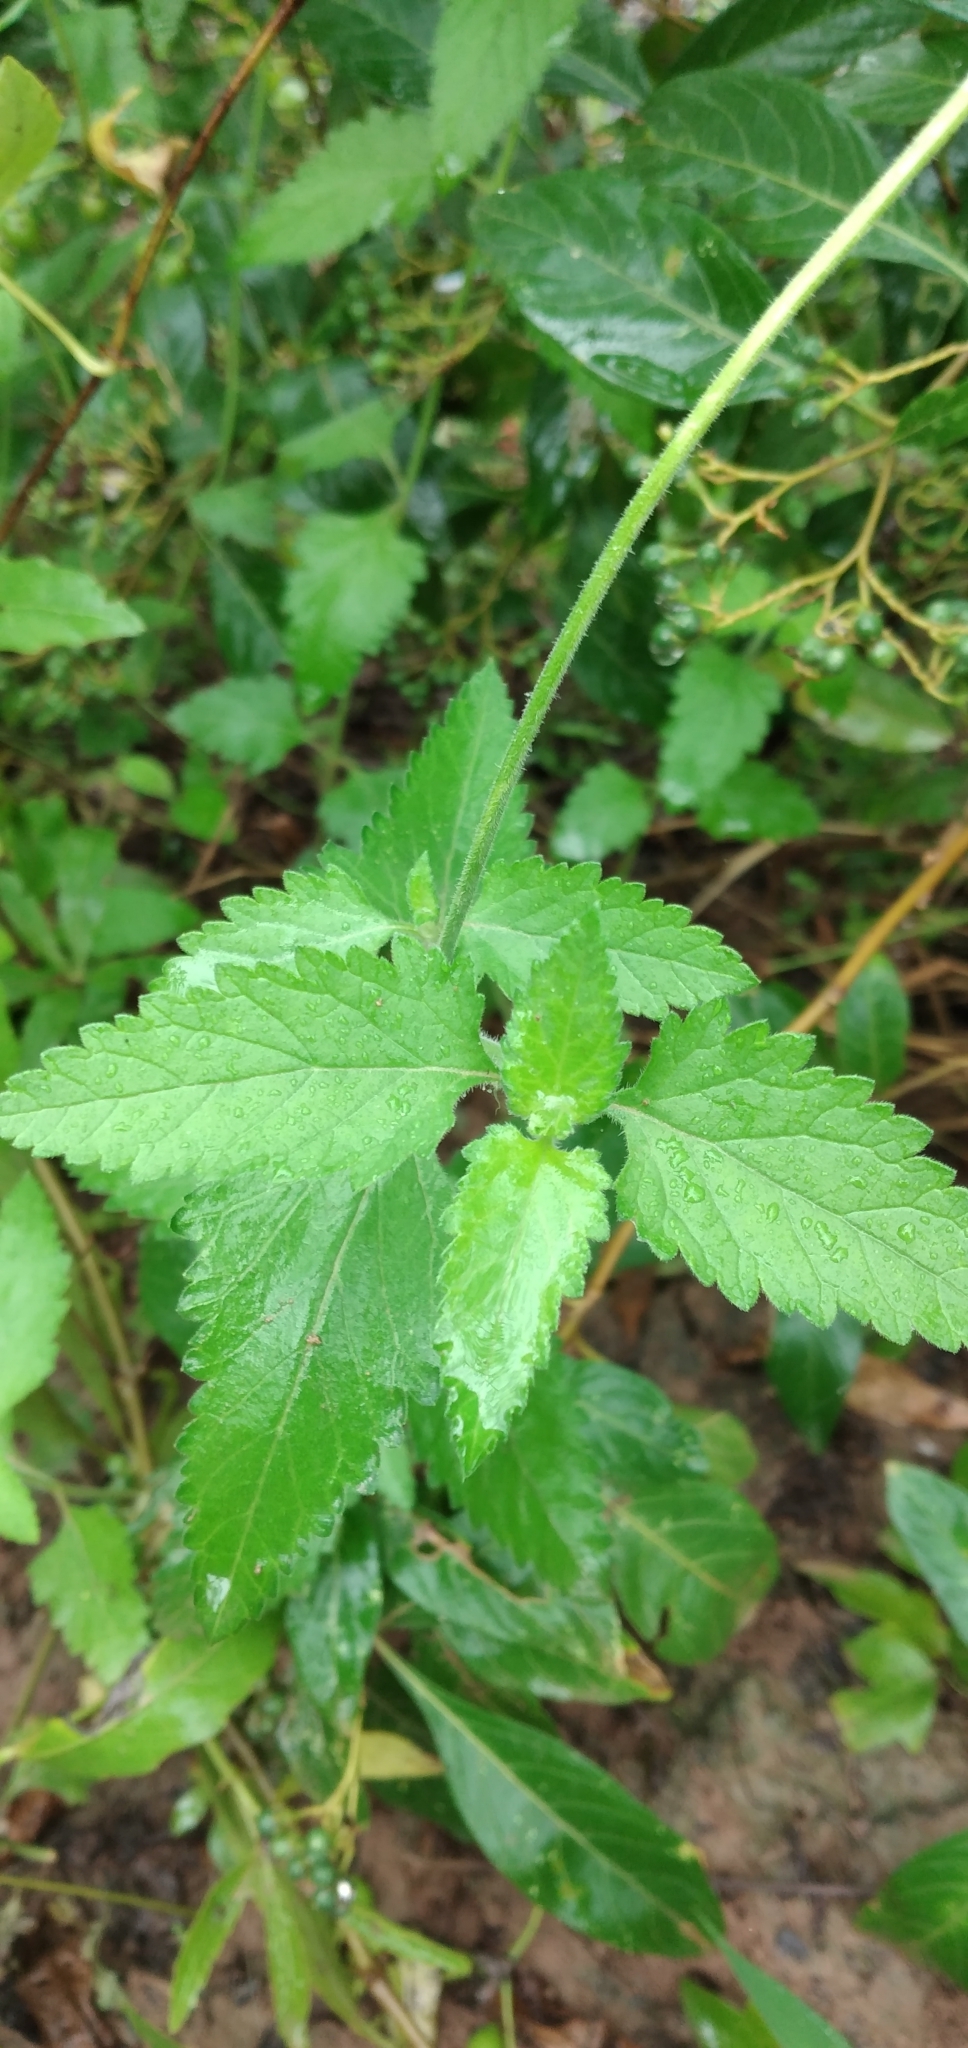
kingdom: Plantae
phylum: Tracheophyta
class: Magnoliopsida
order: Lamiales
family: Verbenaceae
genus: Verbena
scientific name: Verbena tweedieana
